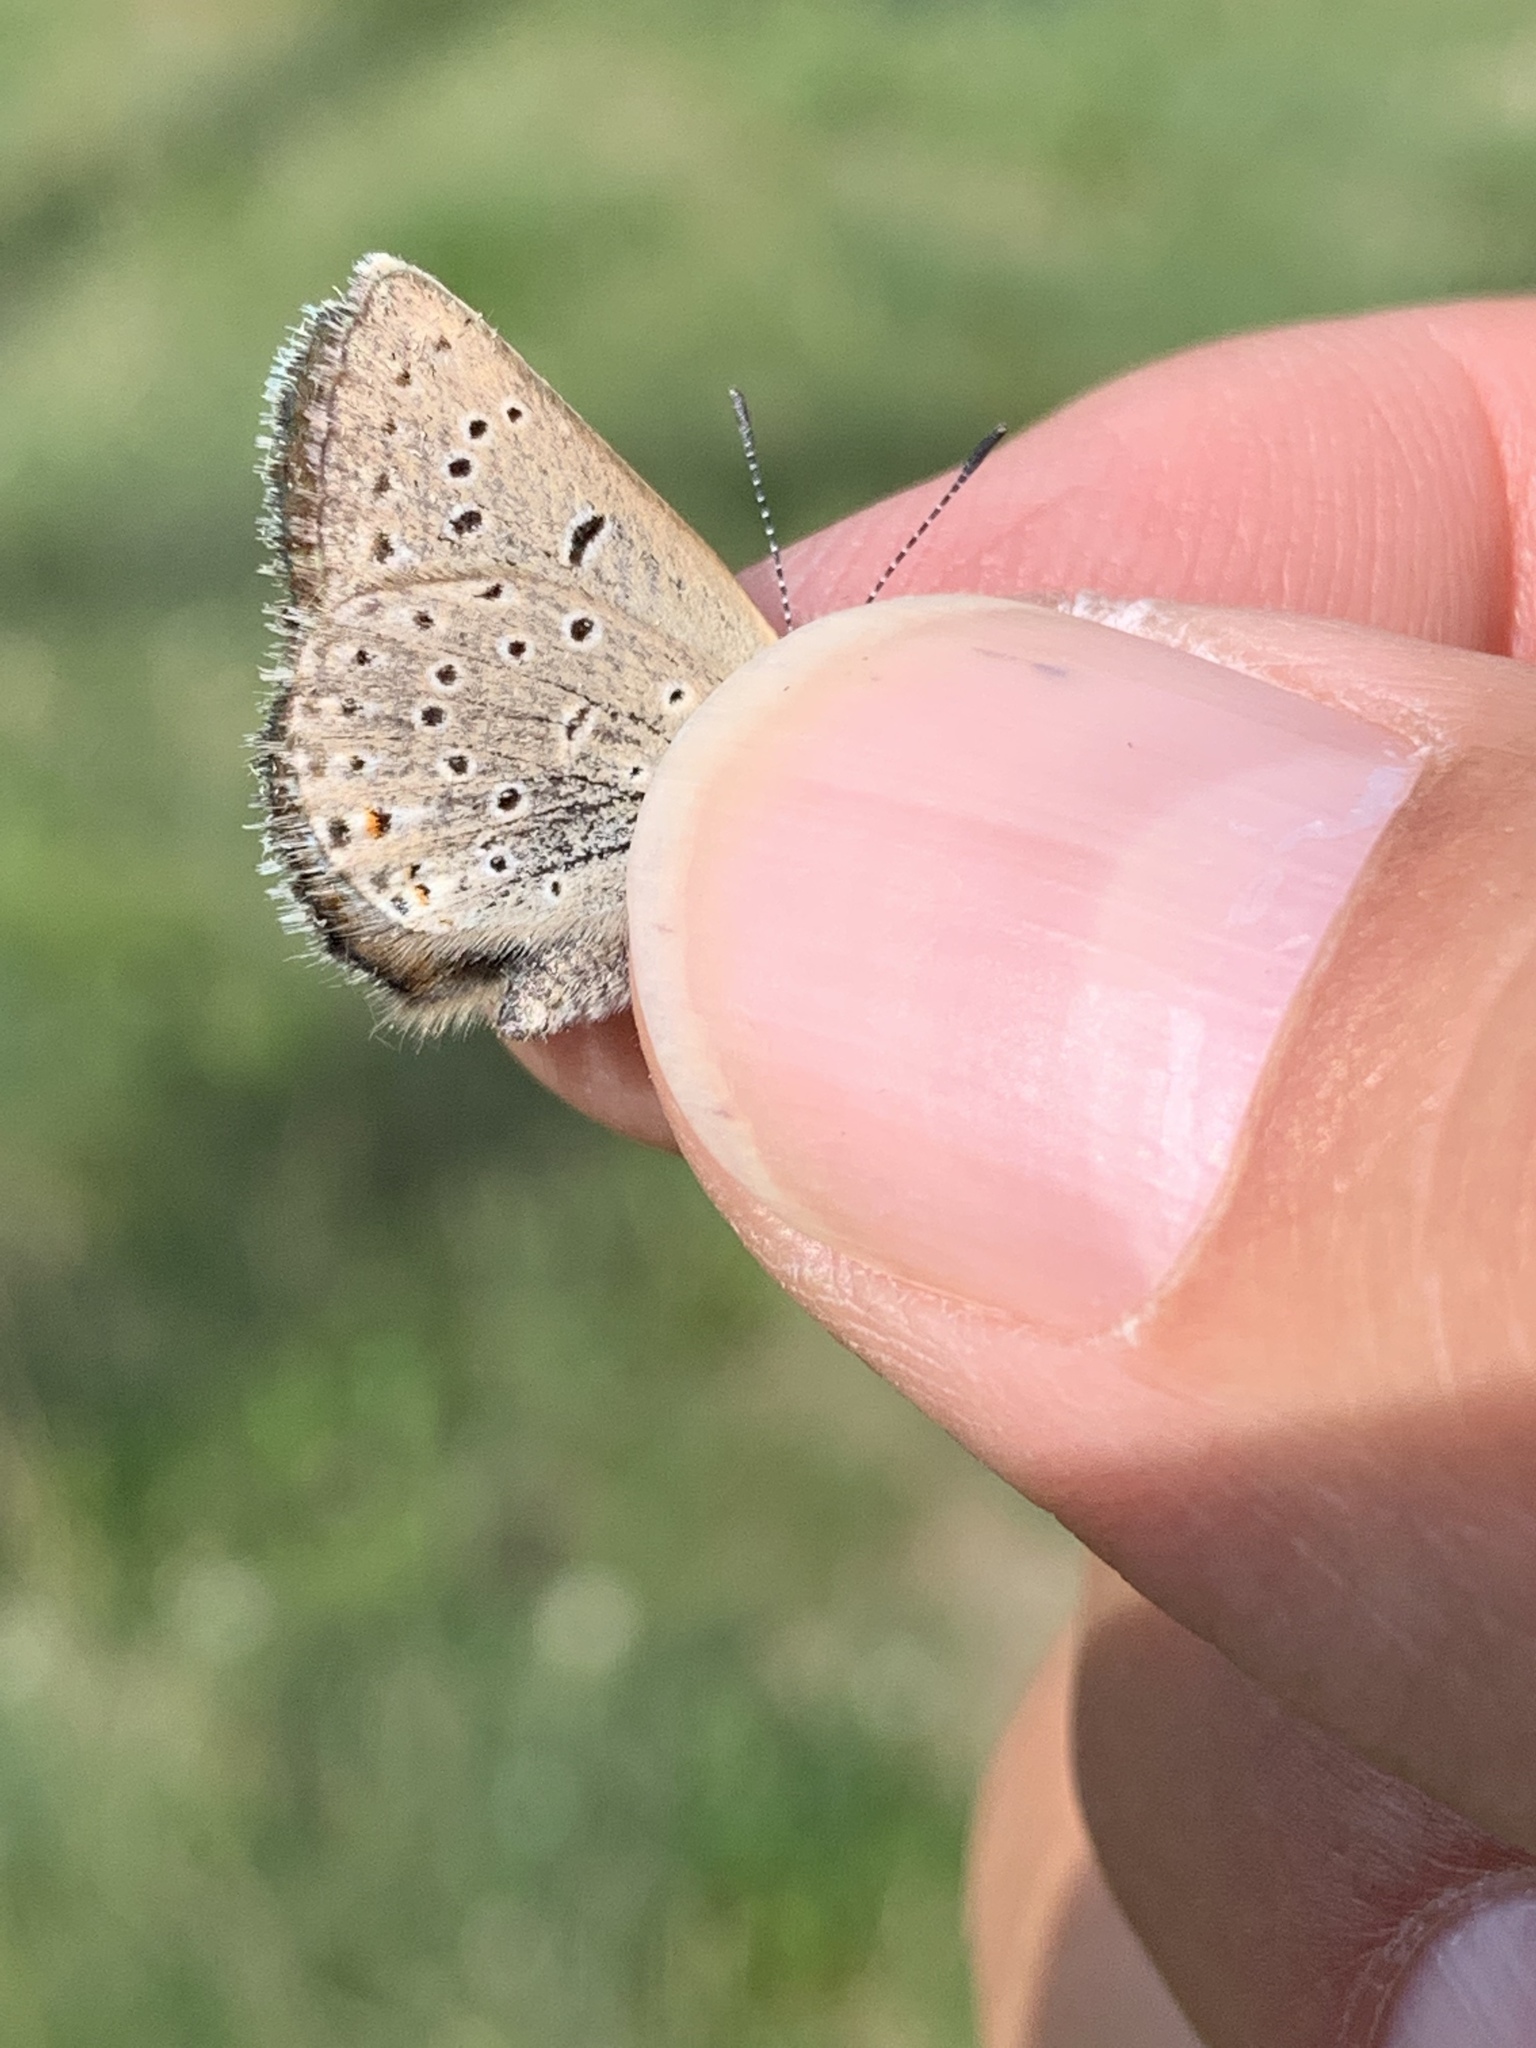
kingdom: Animalia
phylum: Arthropoda
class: Insecta
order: Lepidoptera
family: Lycaenidae
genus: Icaricia
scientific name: Icaricia saepiolus
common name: Greenish blue
